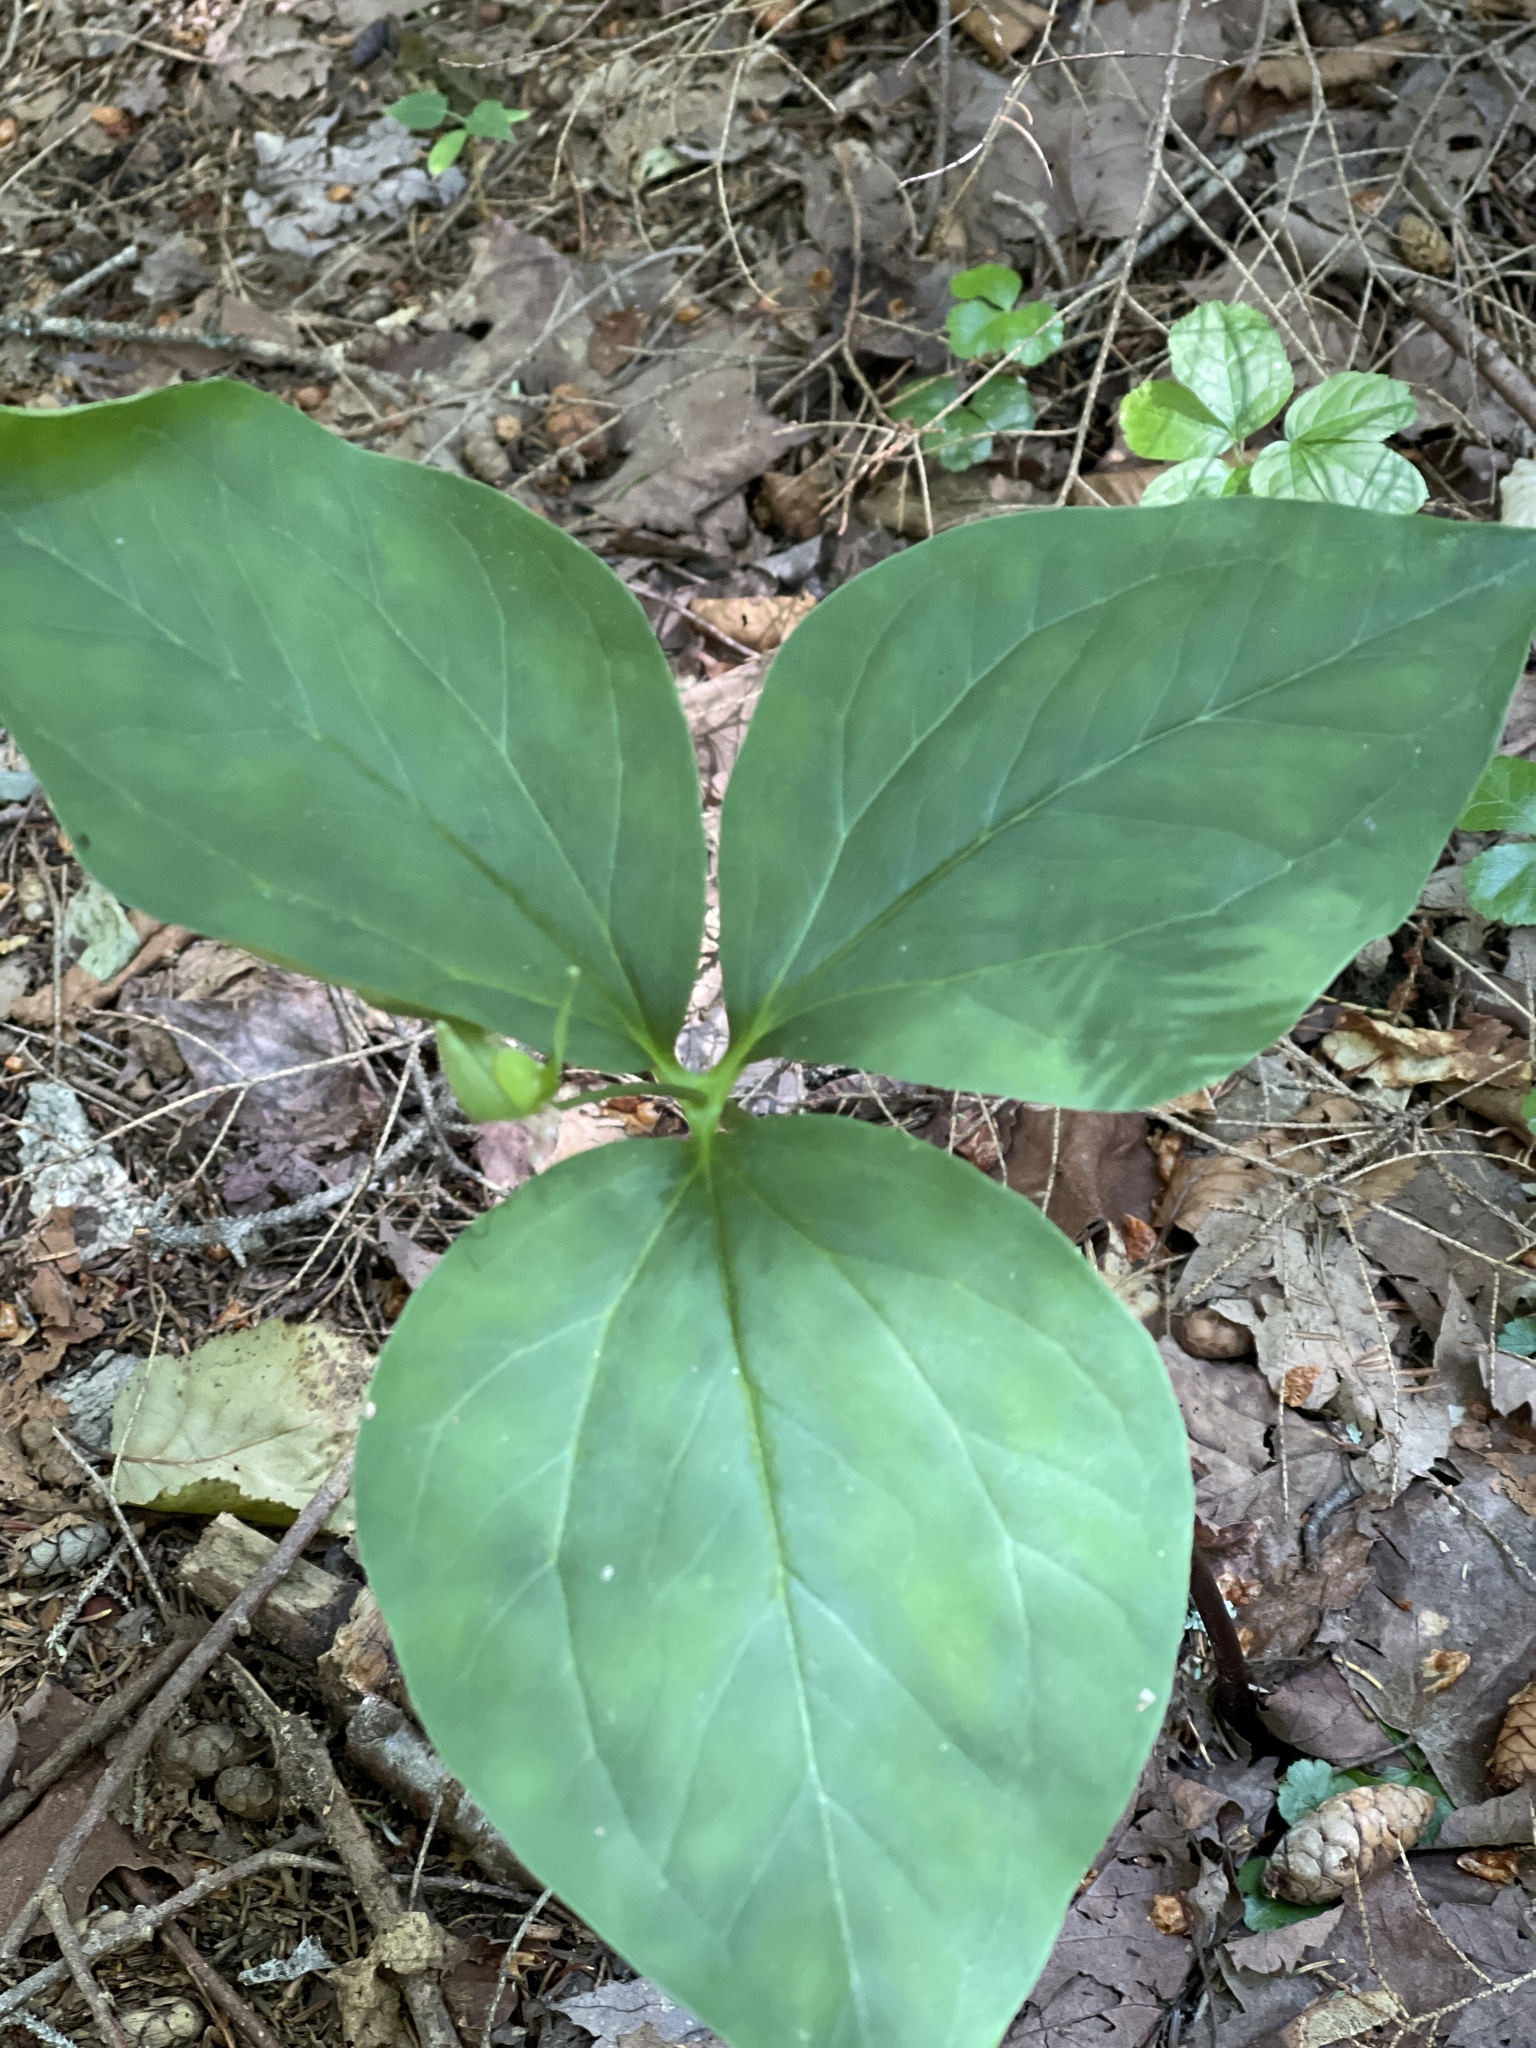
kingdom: Plantae
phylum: Tracheophyta
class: Liliopsida
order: Liliales
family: Melanthiaceae
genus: Trillium
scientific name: Trillium undulatum
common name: Paint trillium
